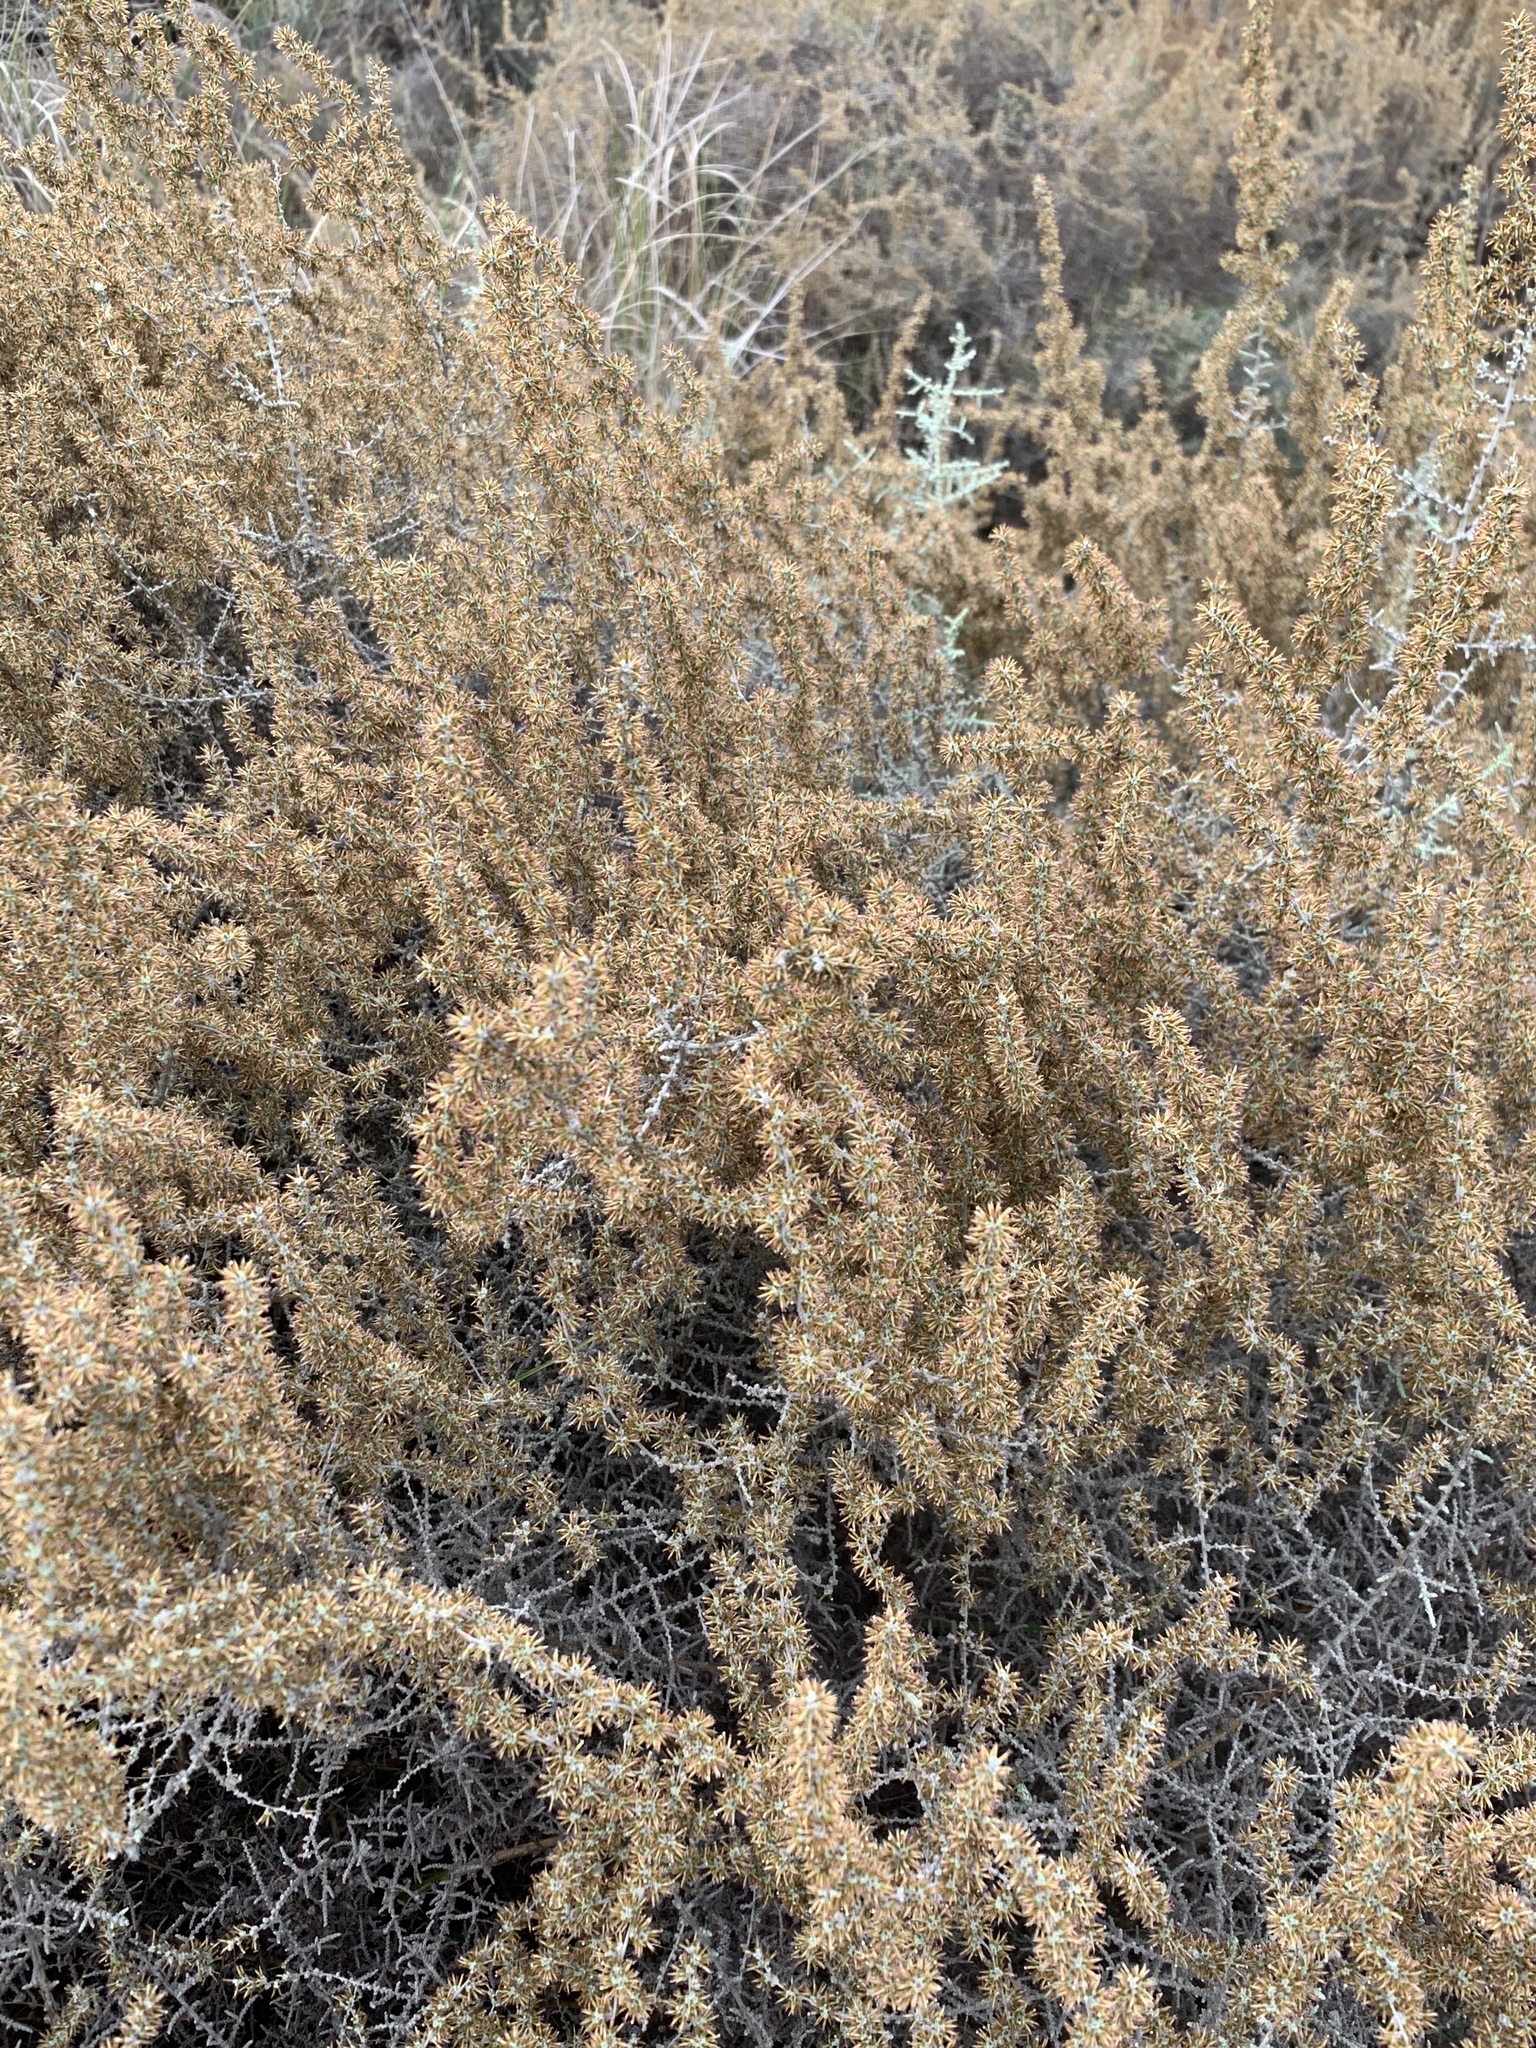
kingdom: Plantae
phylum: Tracheophyta
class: Magnoliopsida
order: Asterales
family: Asteraceae
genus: Seriphium
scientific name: Seriphium plumosum
